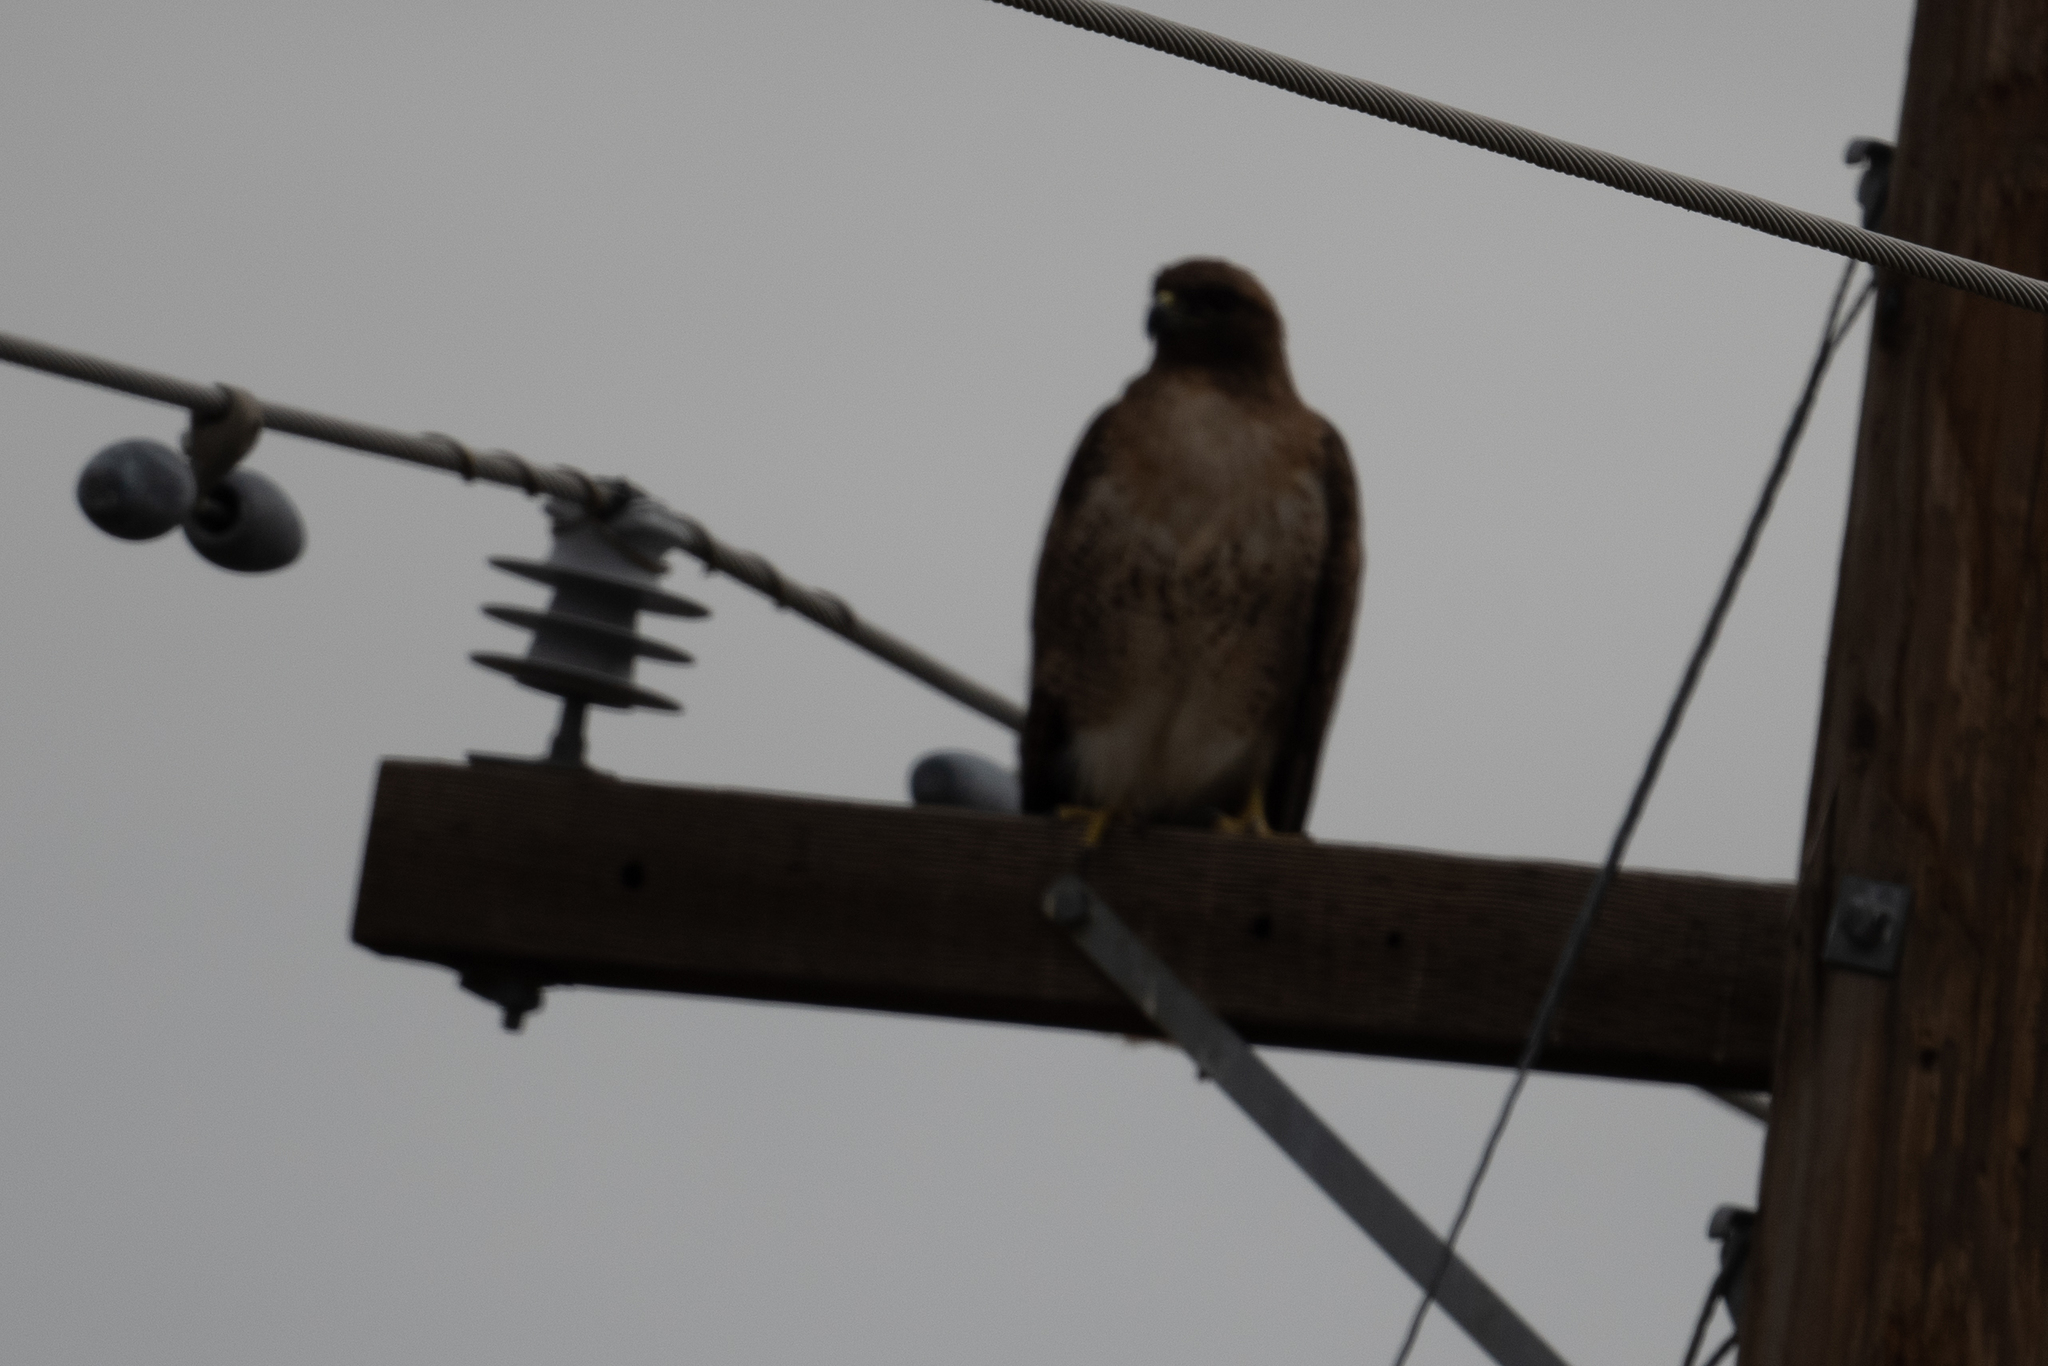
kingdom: Animalia
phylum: Chordata
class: Aves
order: Accipitriformes
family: Accipitridae
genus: Buteo
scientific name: Buteo jamaicensis
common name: Red-tailed hawk
